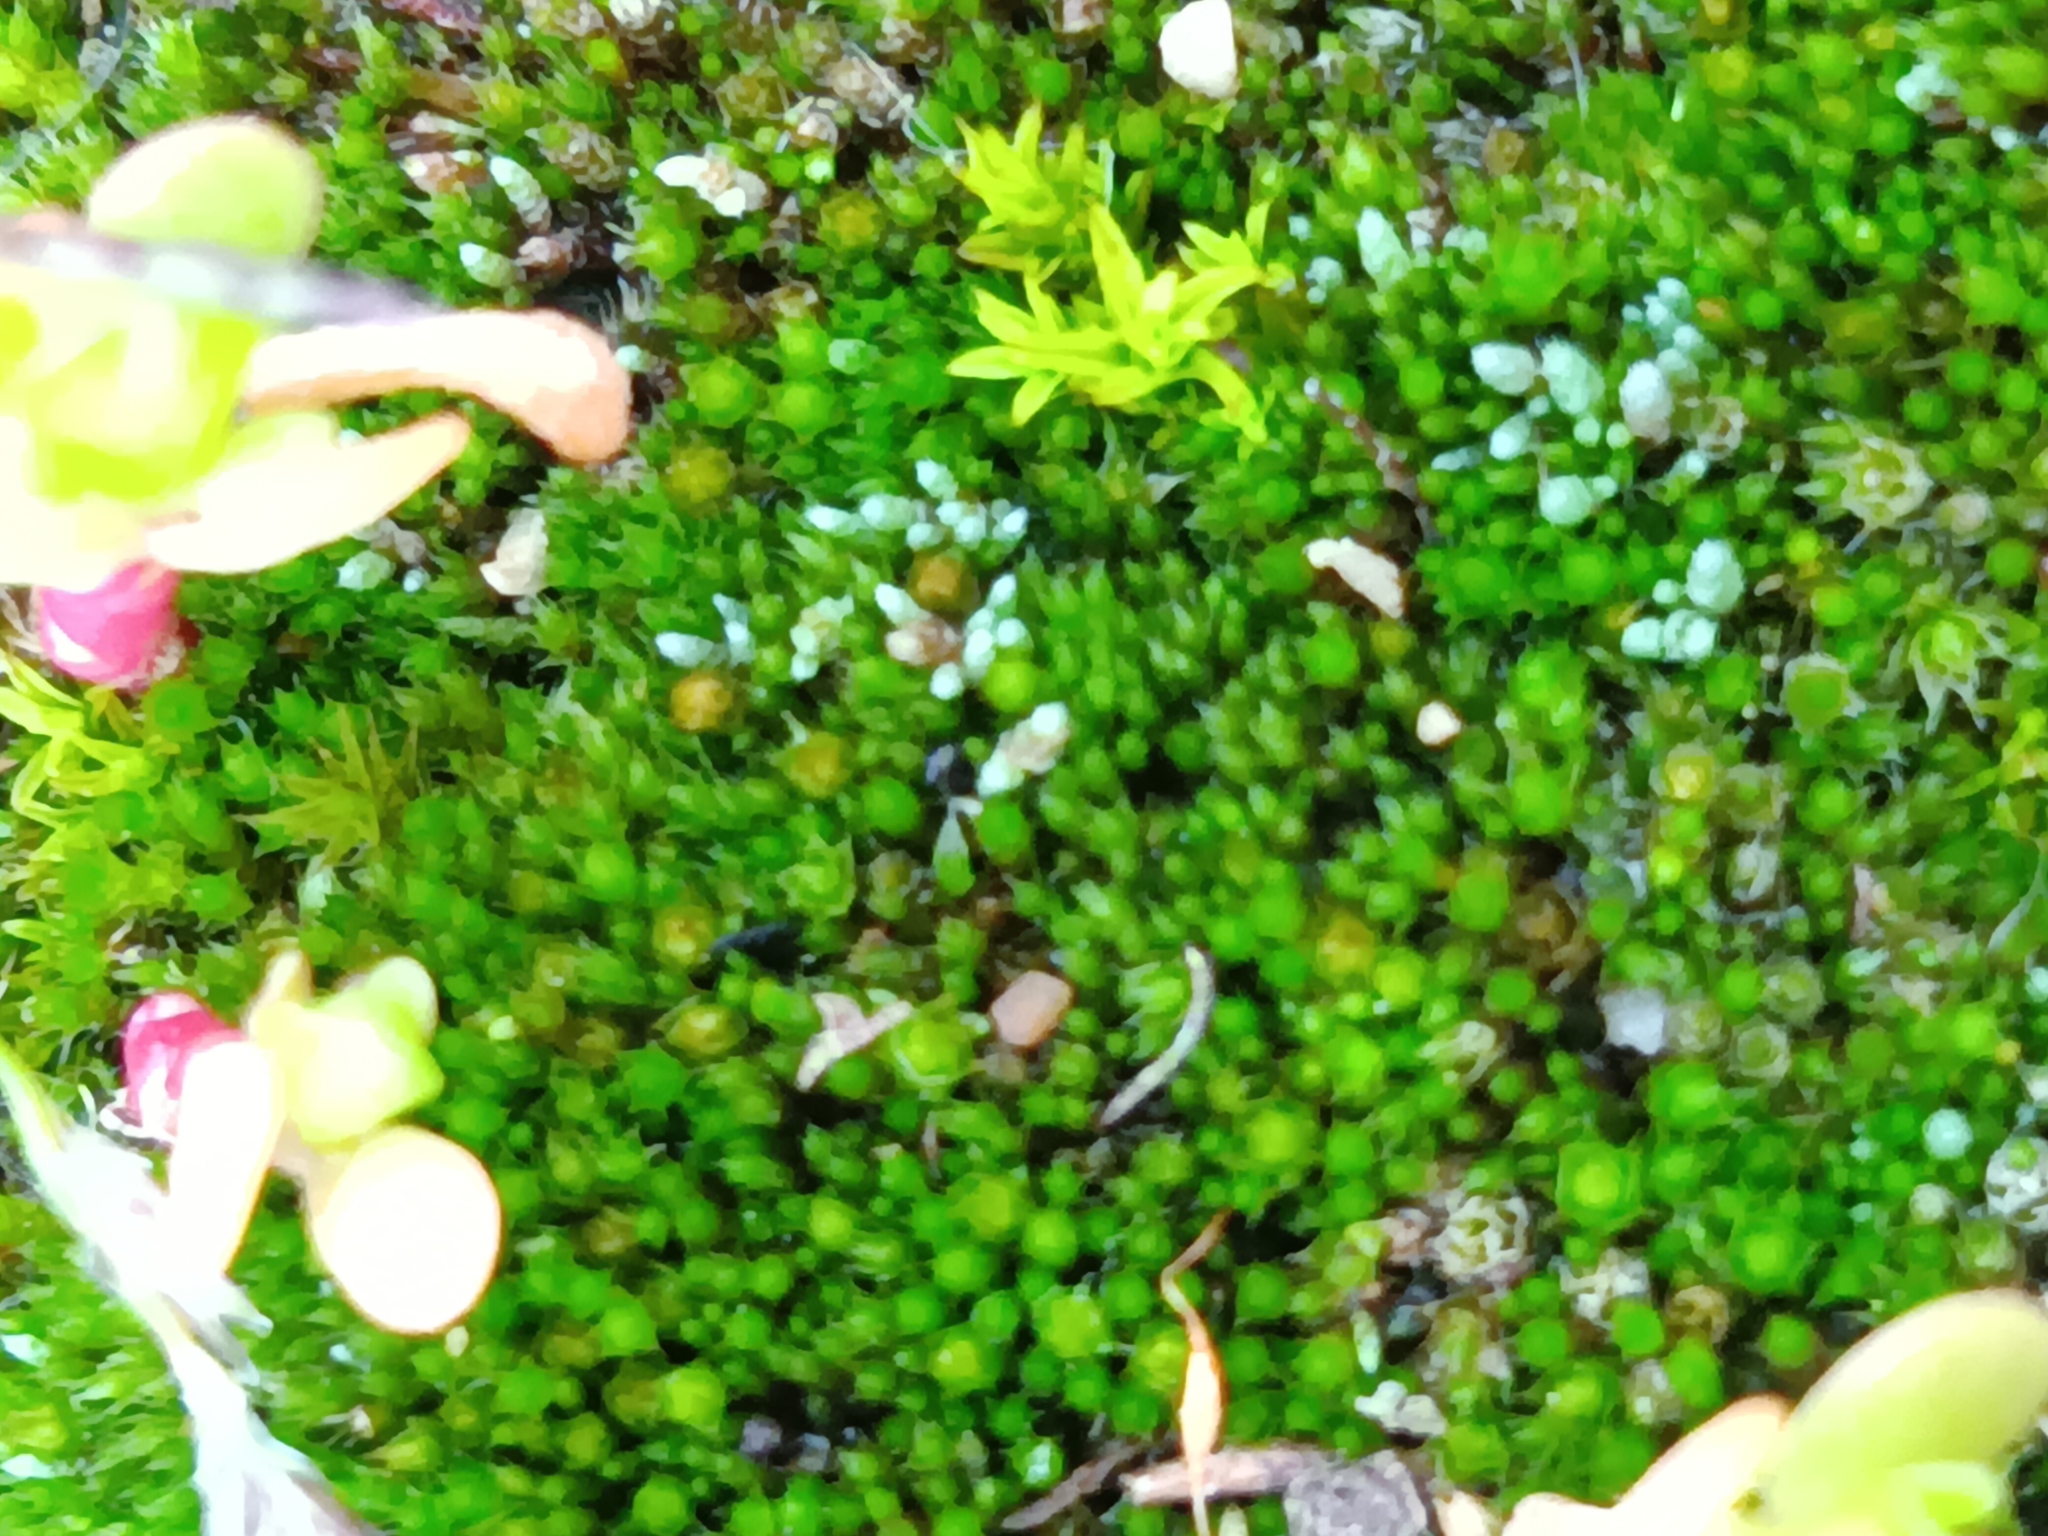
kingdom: Plantae
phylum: Bryophyta
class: Bryopsida
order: Bryales
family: Bryaceae
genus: Bryum
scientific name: Bryum argenteum
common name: Silver-moss
